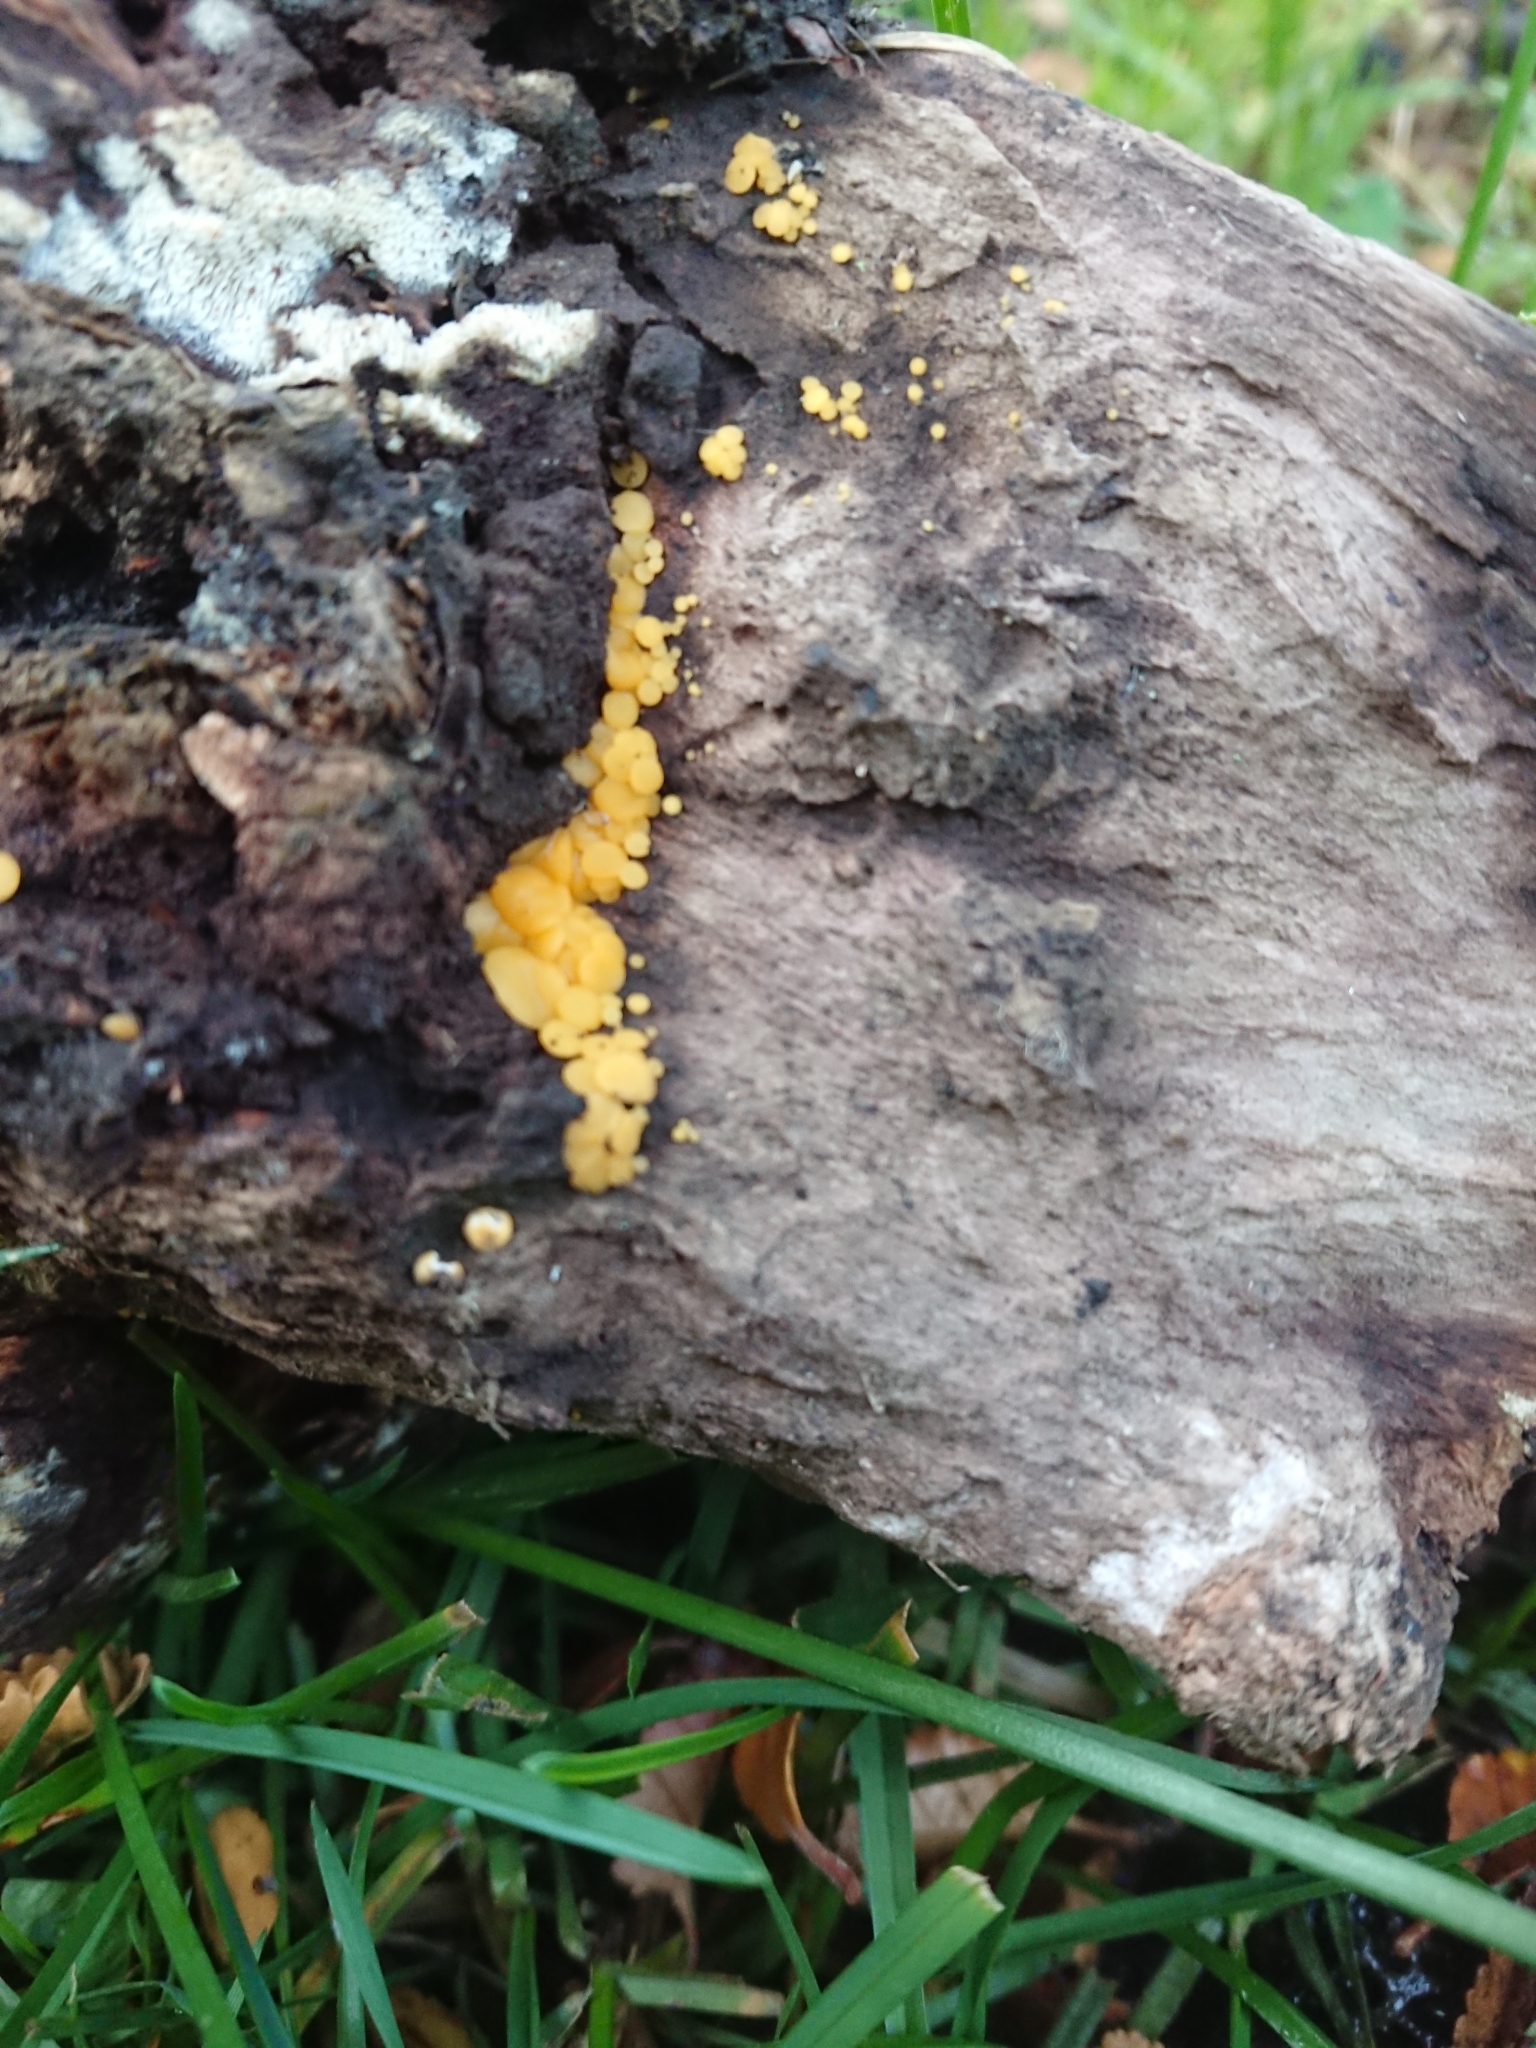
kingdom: Fungi
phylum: Ascomycota
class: Leotiomycetes
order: Helotiales
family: Pezizellaceae
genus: Calycina
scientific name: Calycina citrina
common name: Yellow fairy cups
